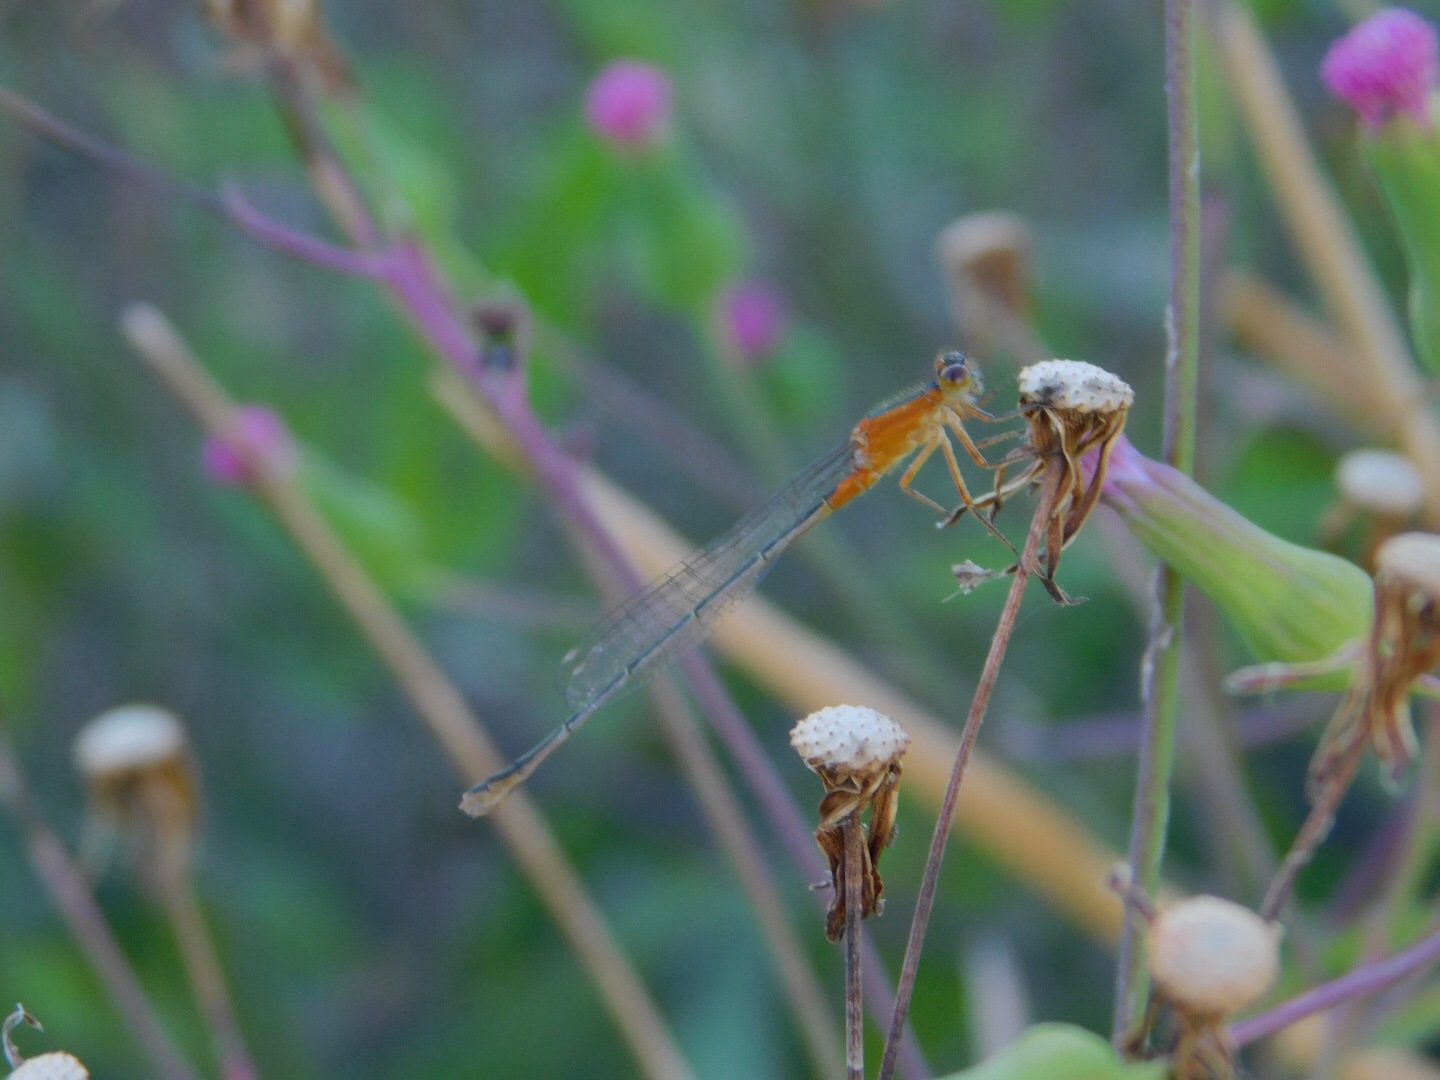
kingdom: Animalia
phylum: Arthropoda
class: Insecta
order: Odonata
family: Coenagrionidae
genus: Ischnura
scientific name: Ischnura ramburii
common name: Rambur's forktail
